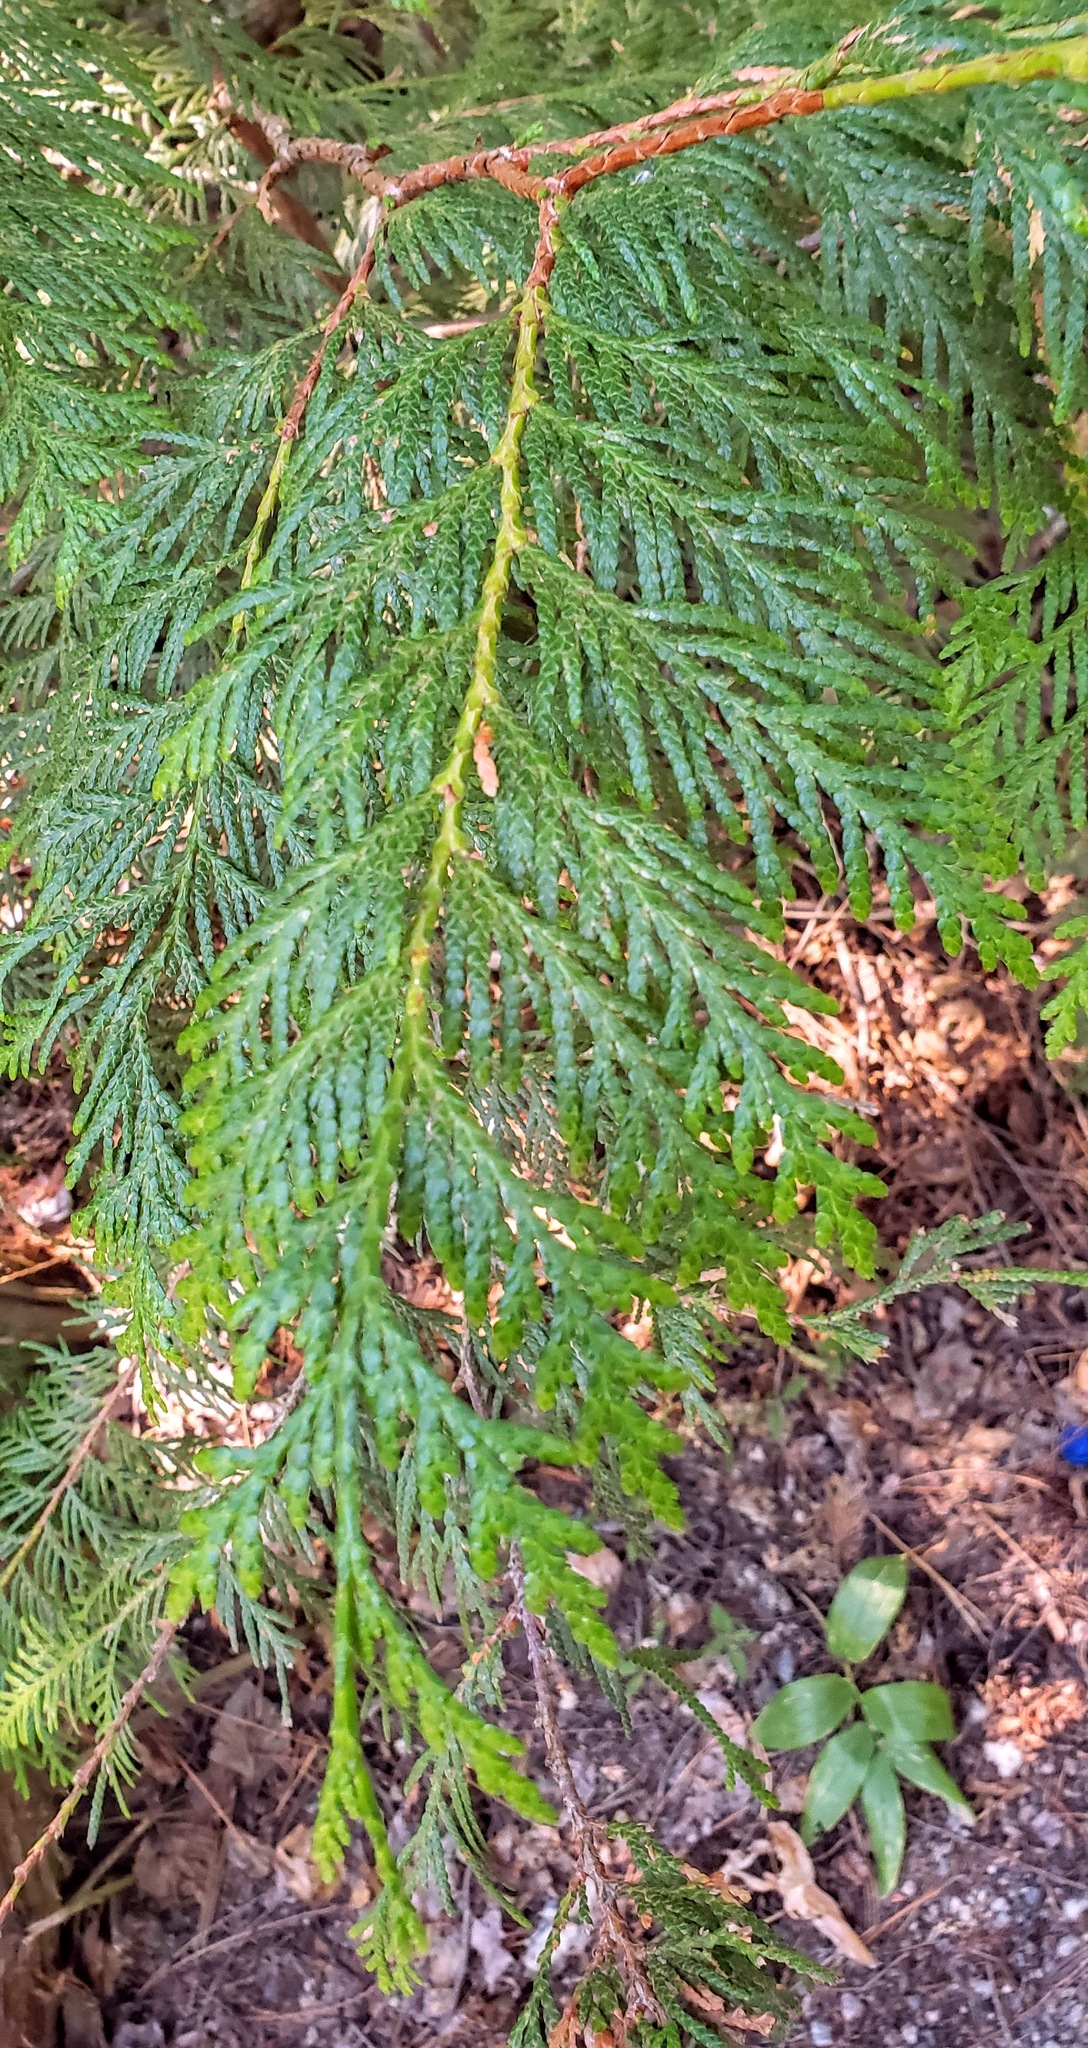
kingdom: Plantae
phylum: Tracheophyta
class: Pinopsida
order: Pinales
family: Cupressaceae
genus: Thuja
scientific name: Thuja plicata
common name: Western red-cedar
